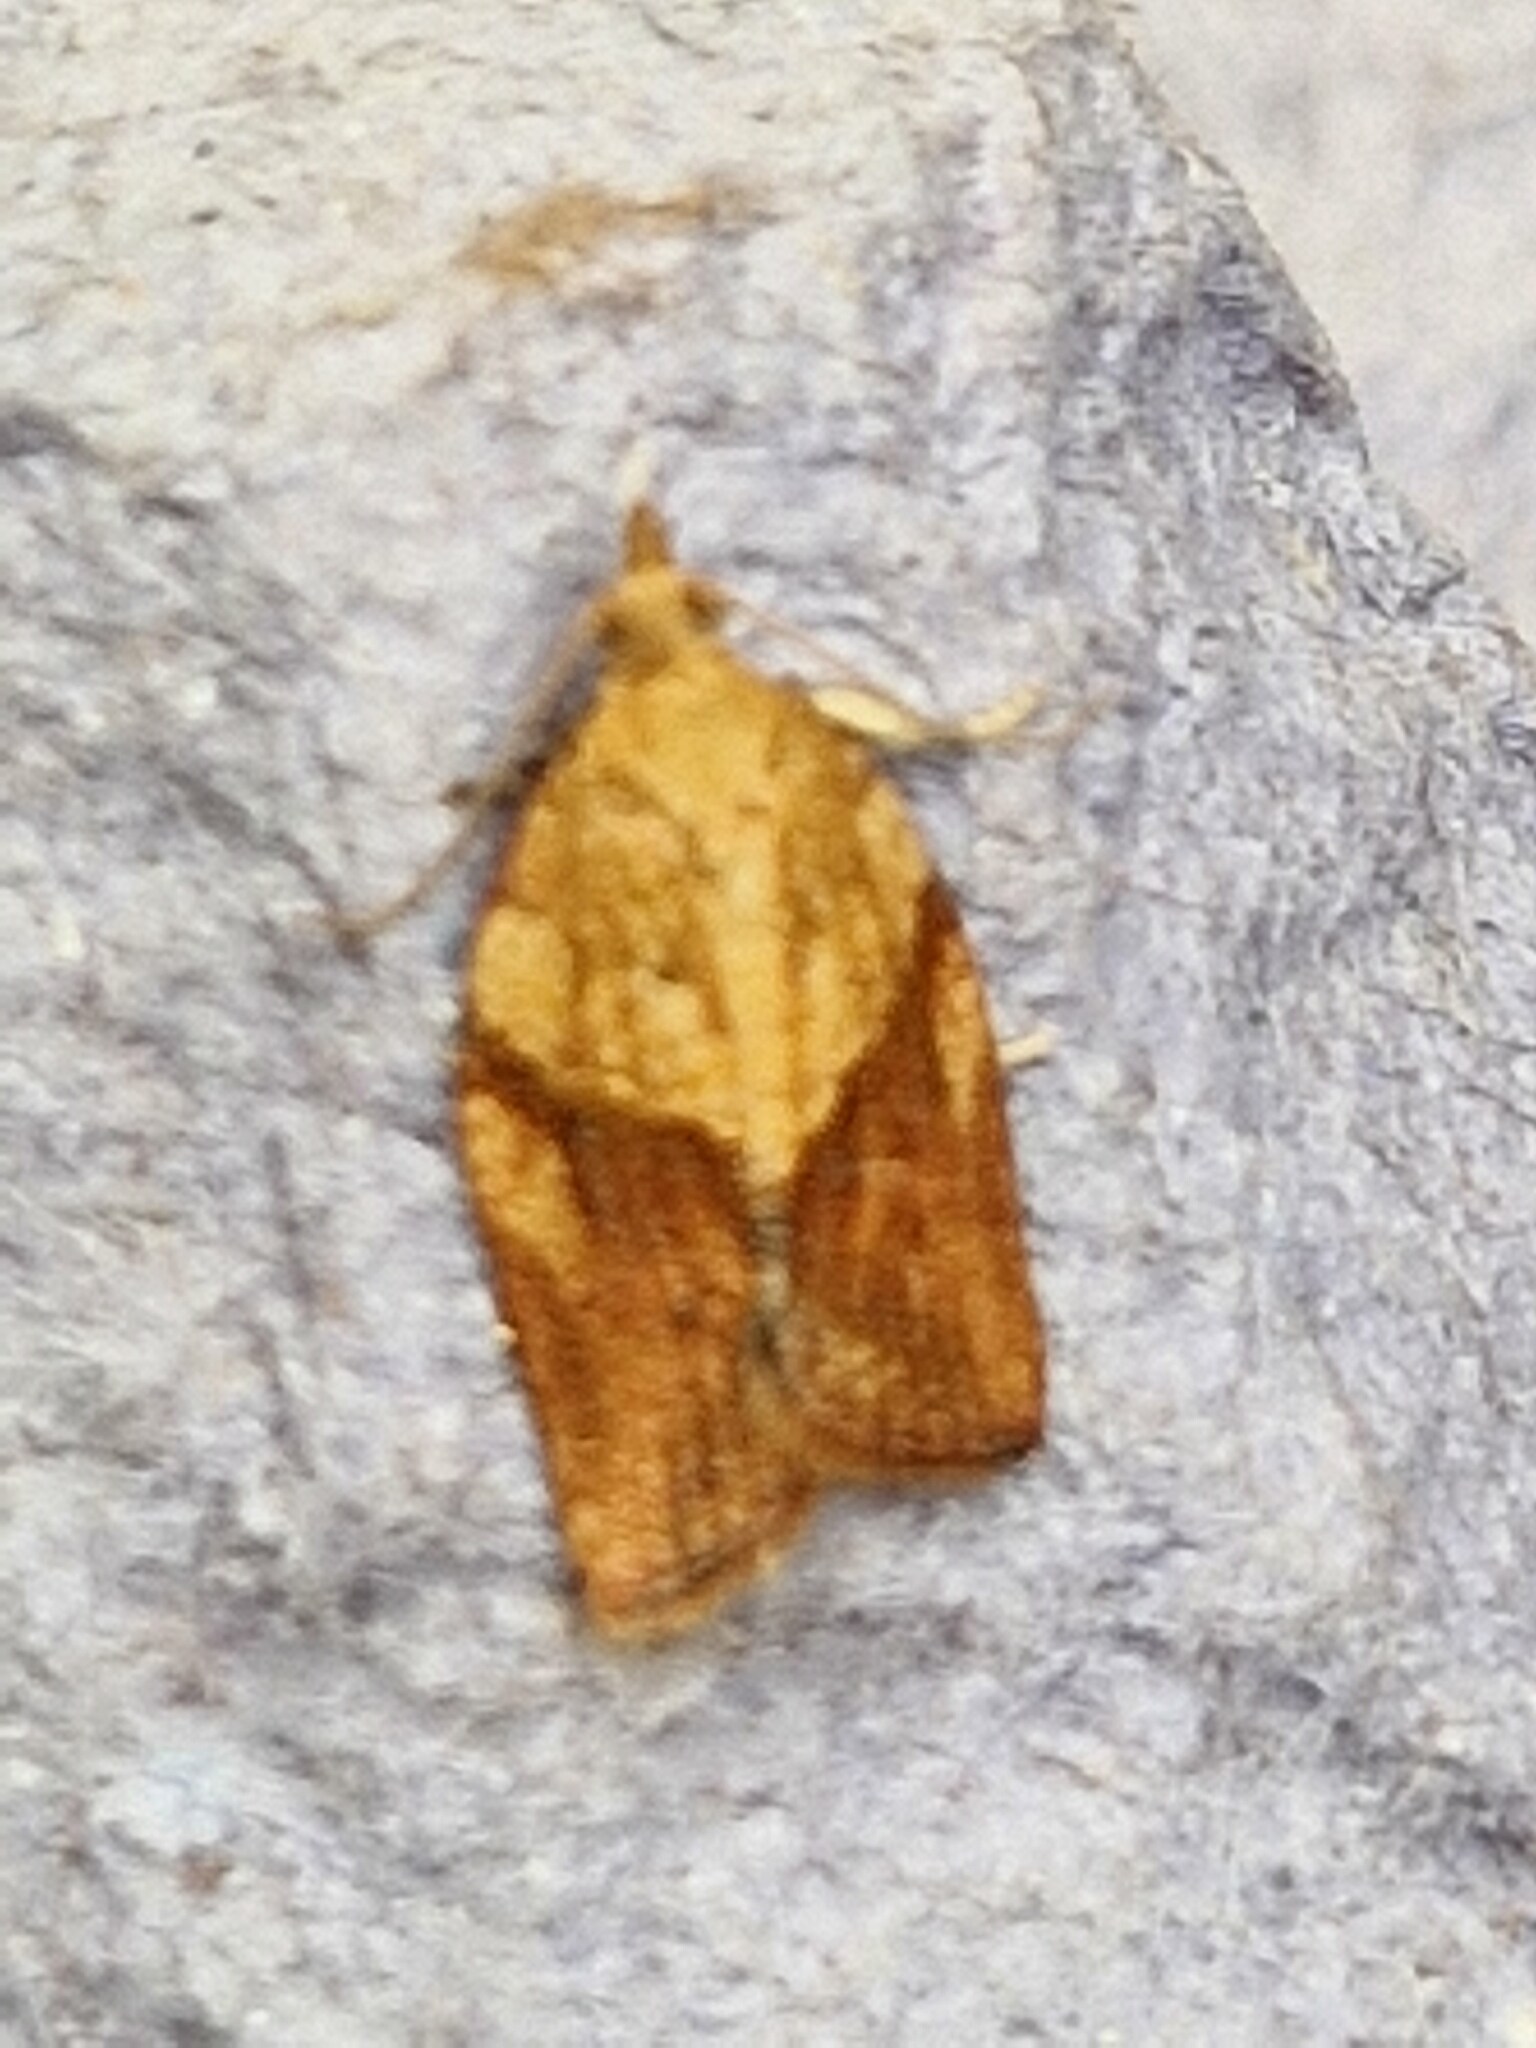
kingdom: Animalia
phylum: Arthropoda
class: Insecta
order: Lepidoptera
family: Tortricidae
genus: Epiphyas
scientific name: Epiphyas postvittana
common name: Light brown apple moth
